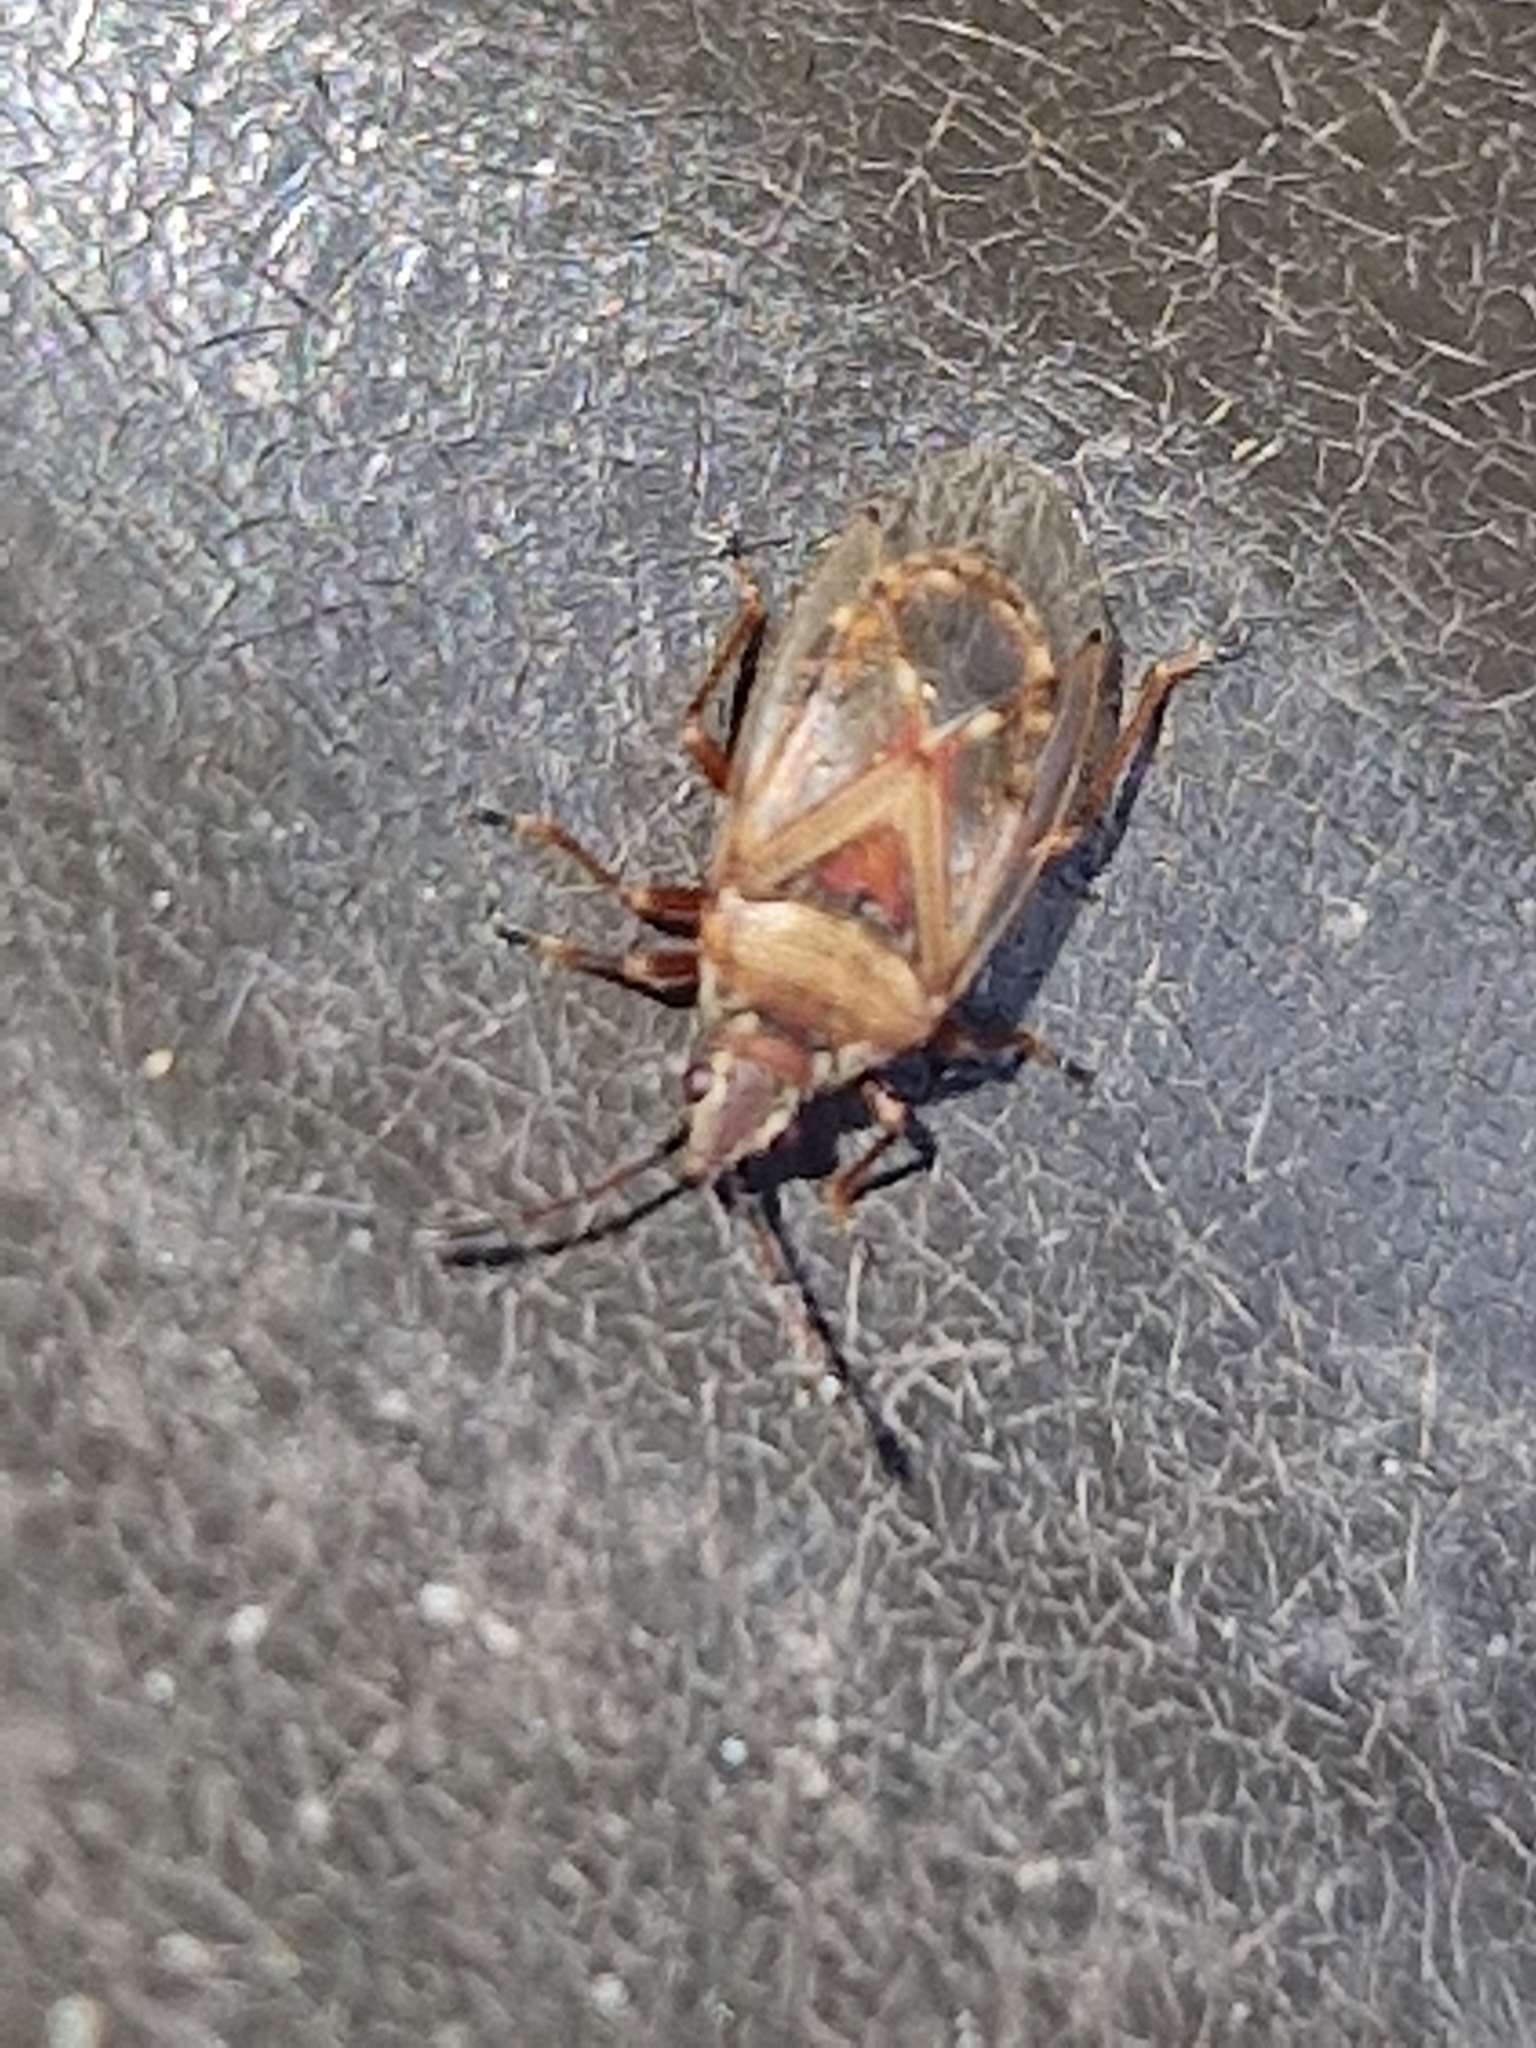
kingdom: Animalia
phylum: Arthropoda
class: Insecta
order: Hemiptera
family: Lygaeidae
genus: Kleidocerys
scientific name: Kleidocerys resedae
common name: Birch catkin bug
